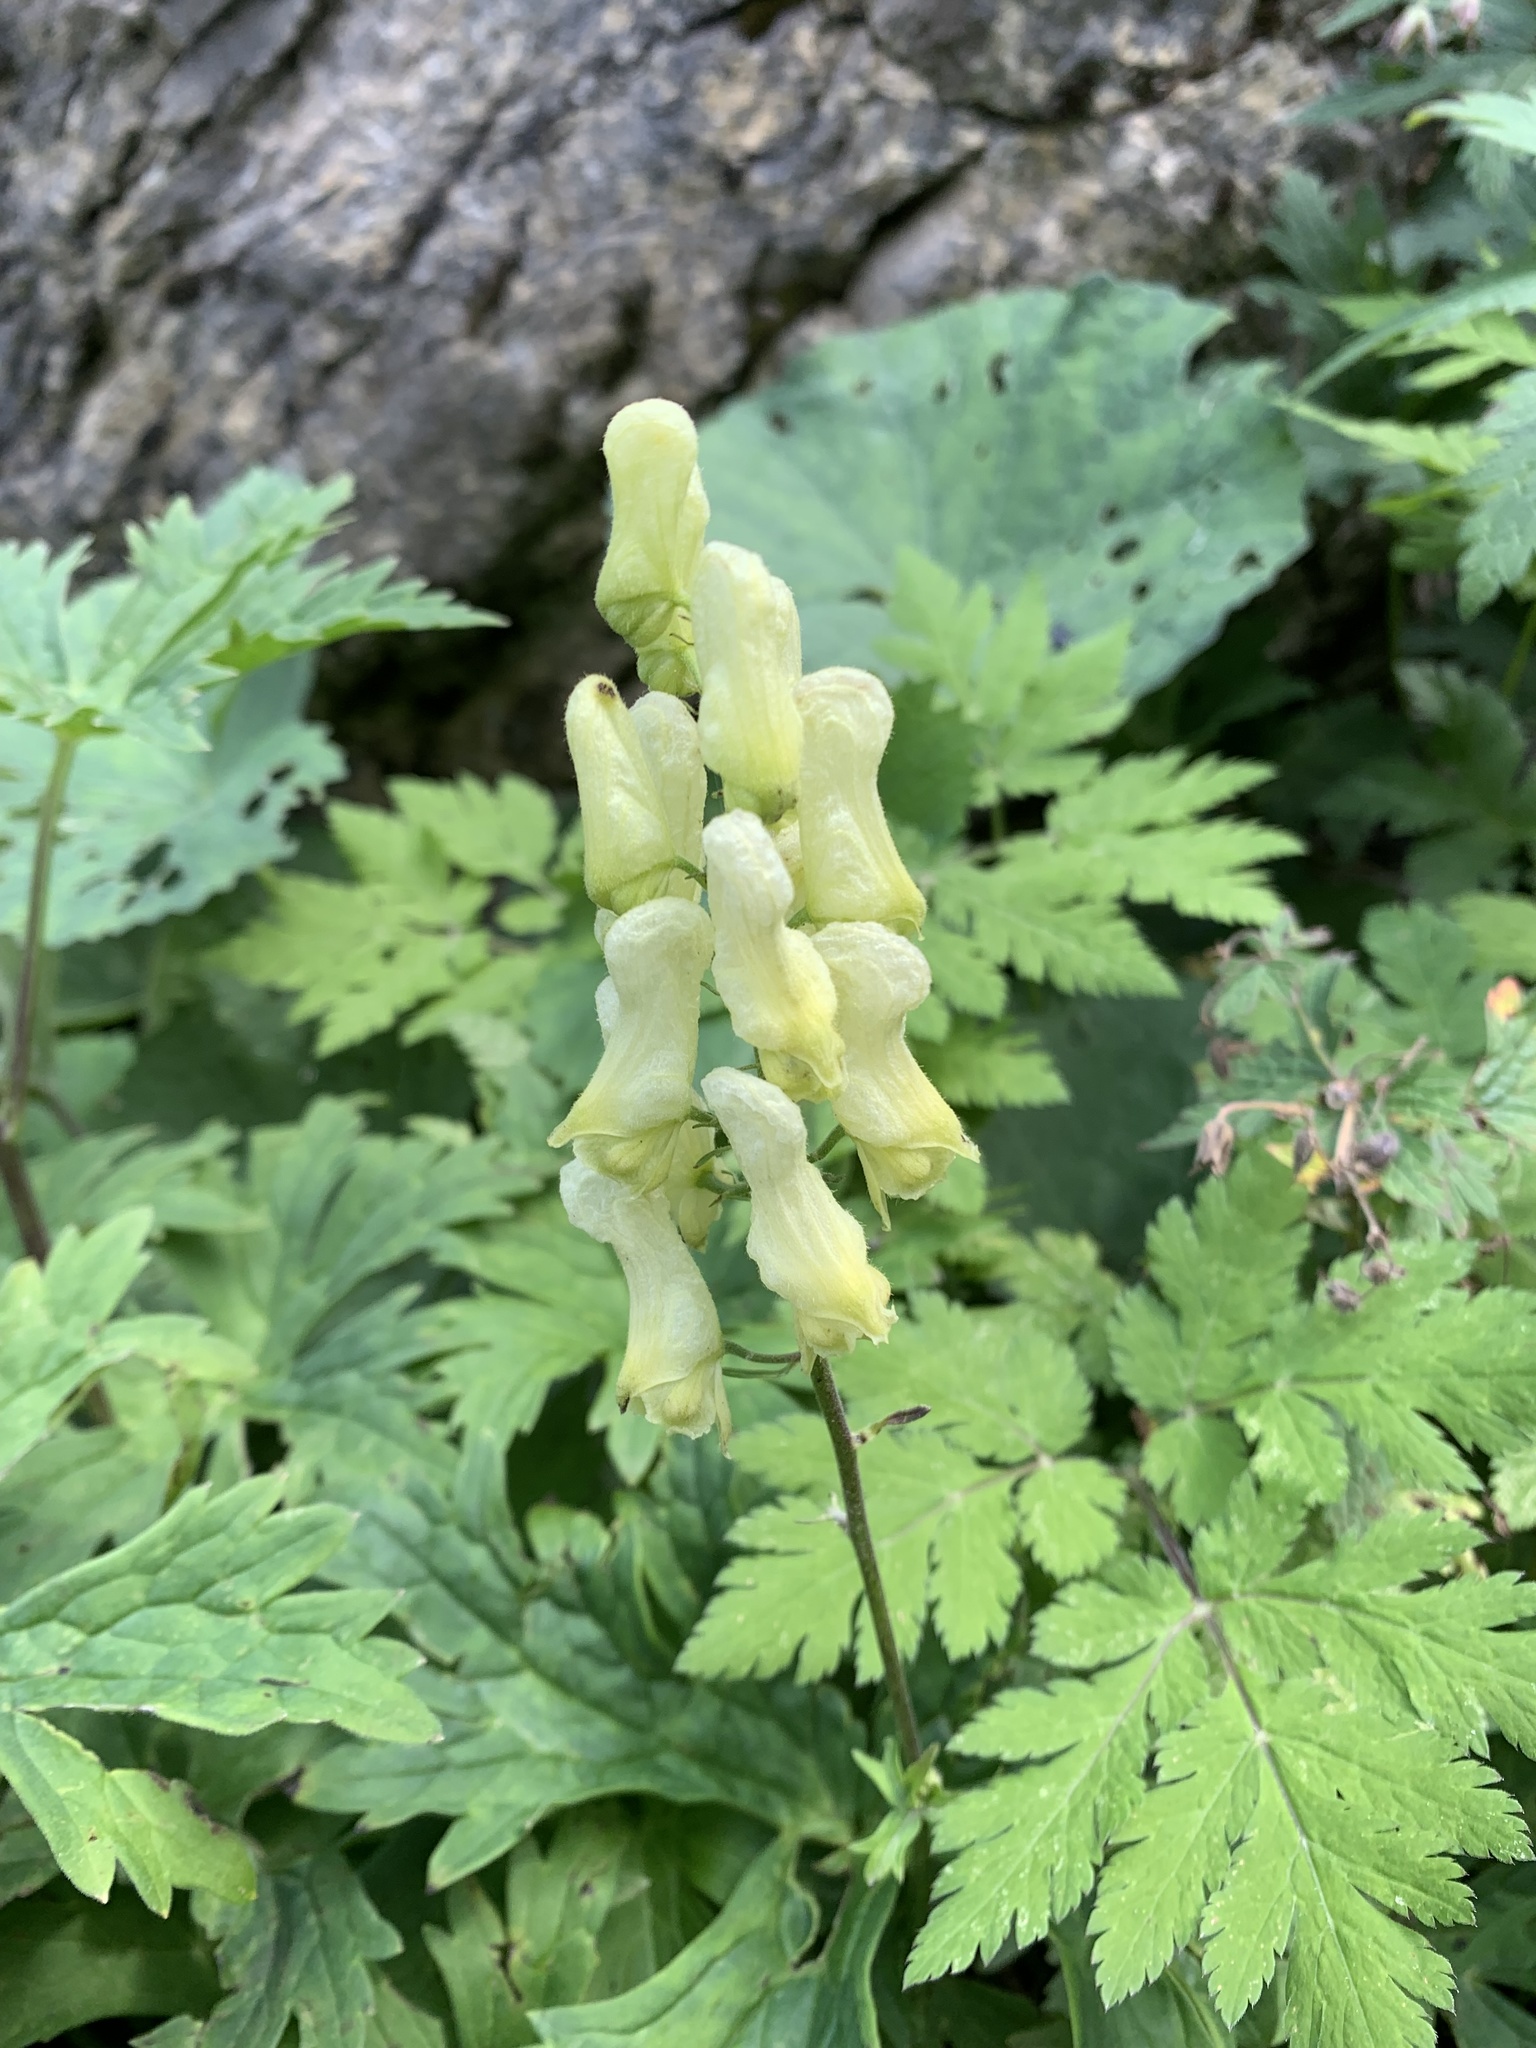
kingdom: Plantae
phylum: Tracheophyta
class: Magnoliopsida
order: Ranunculales
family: Ranunculaceae
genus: Aconitum
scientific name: Aconitum lycoctonum
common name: Wolf's-bane
